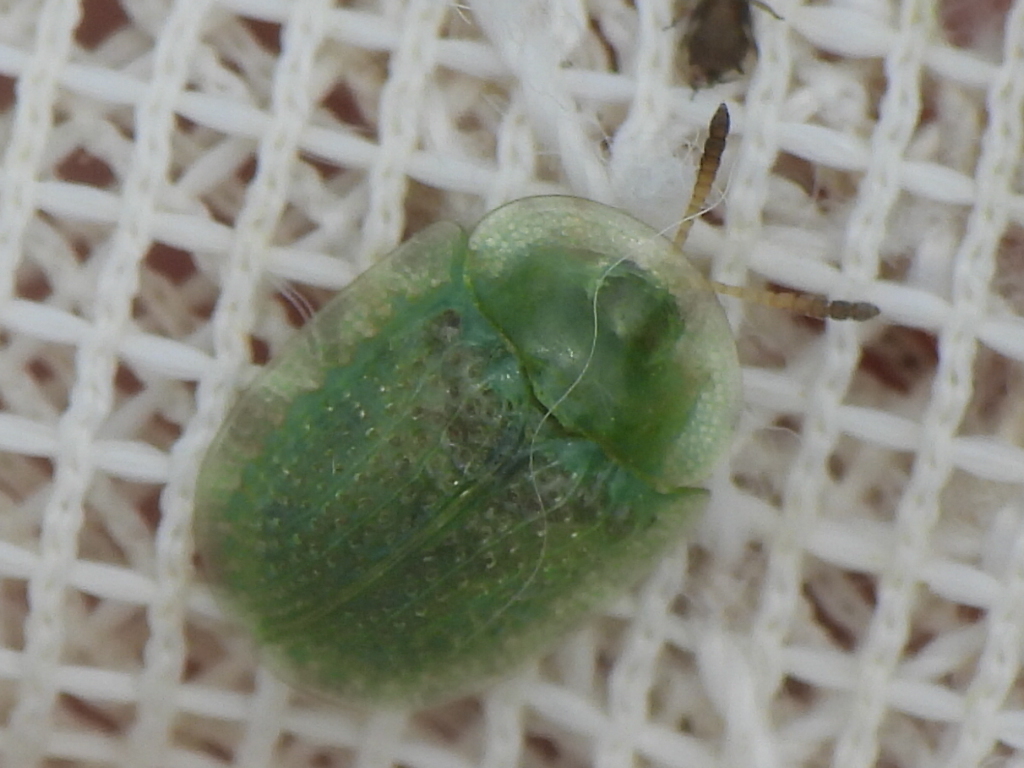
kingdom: Animalia
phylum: Arthropoda
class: Insecta
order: Coleoptera
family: Chrysomelidae
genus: Gratiana
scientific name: Gratiana pallidula
